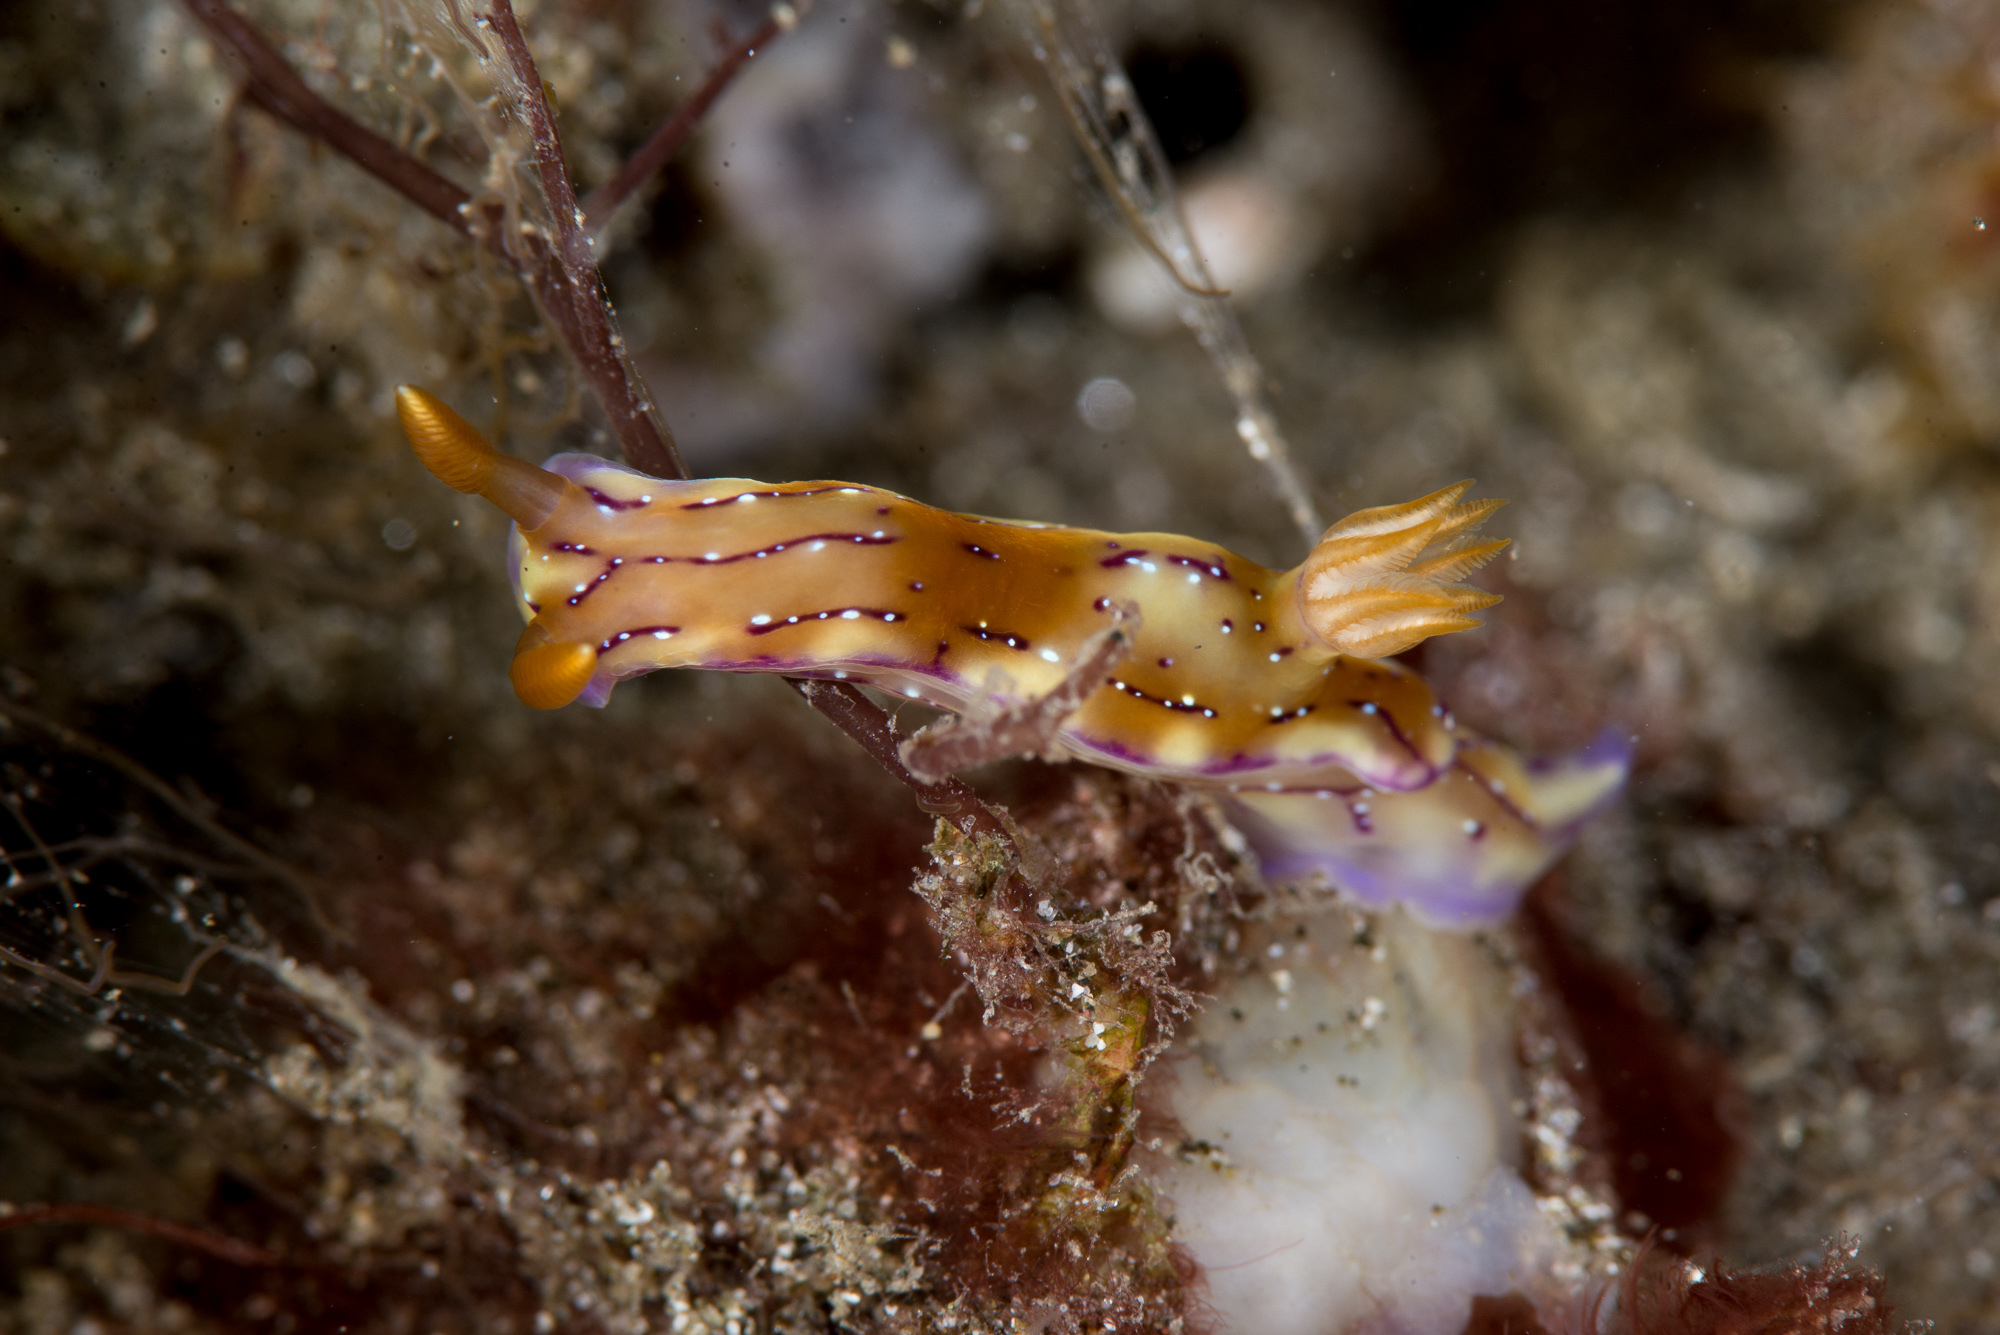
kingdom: Animalia
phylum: Mollusca
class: Gastropoda
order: Nudibranchia
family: Chromodorididae
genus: Hypselodoris
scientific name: Hypselodoris krakatoa
